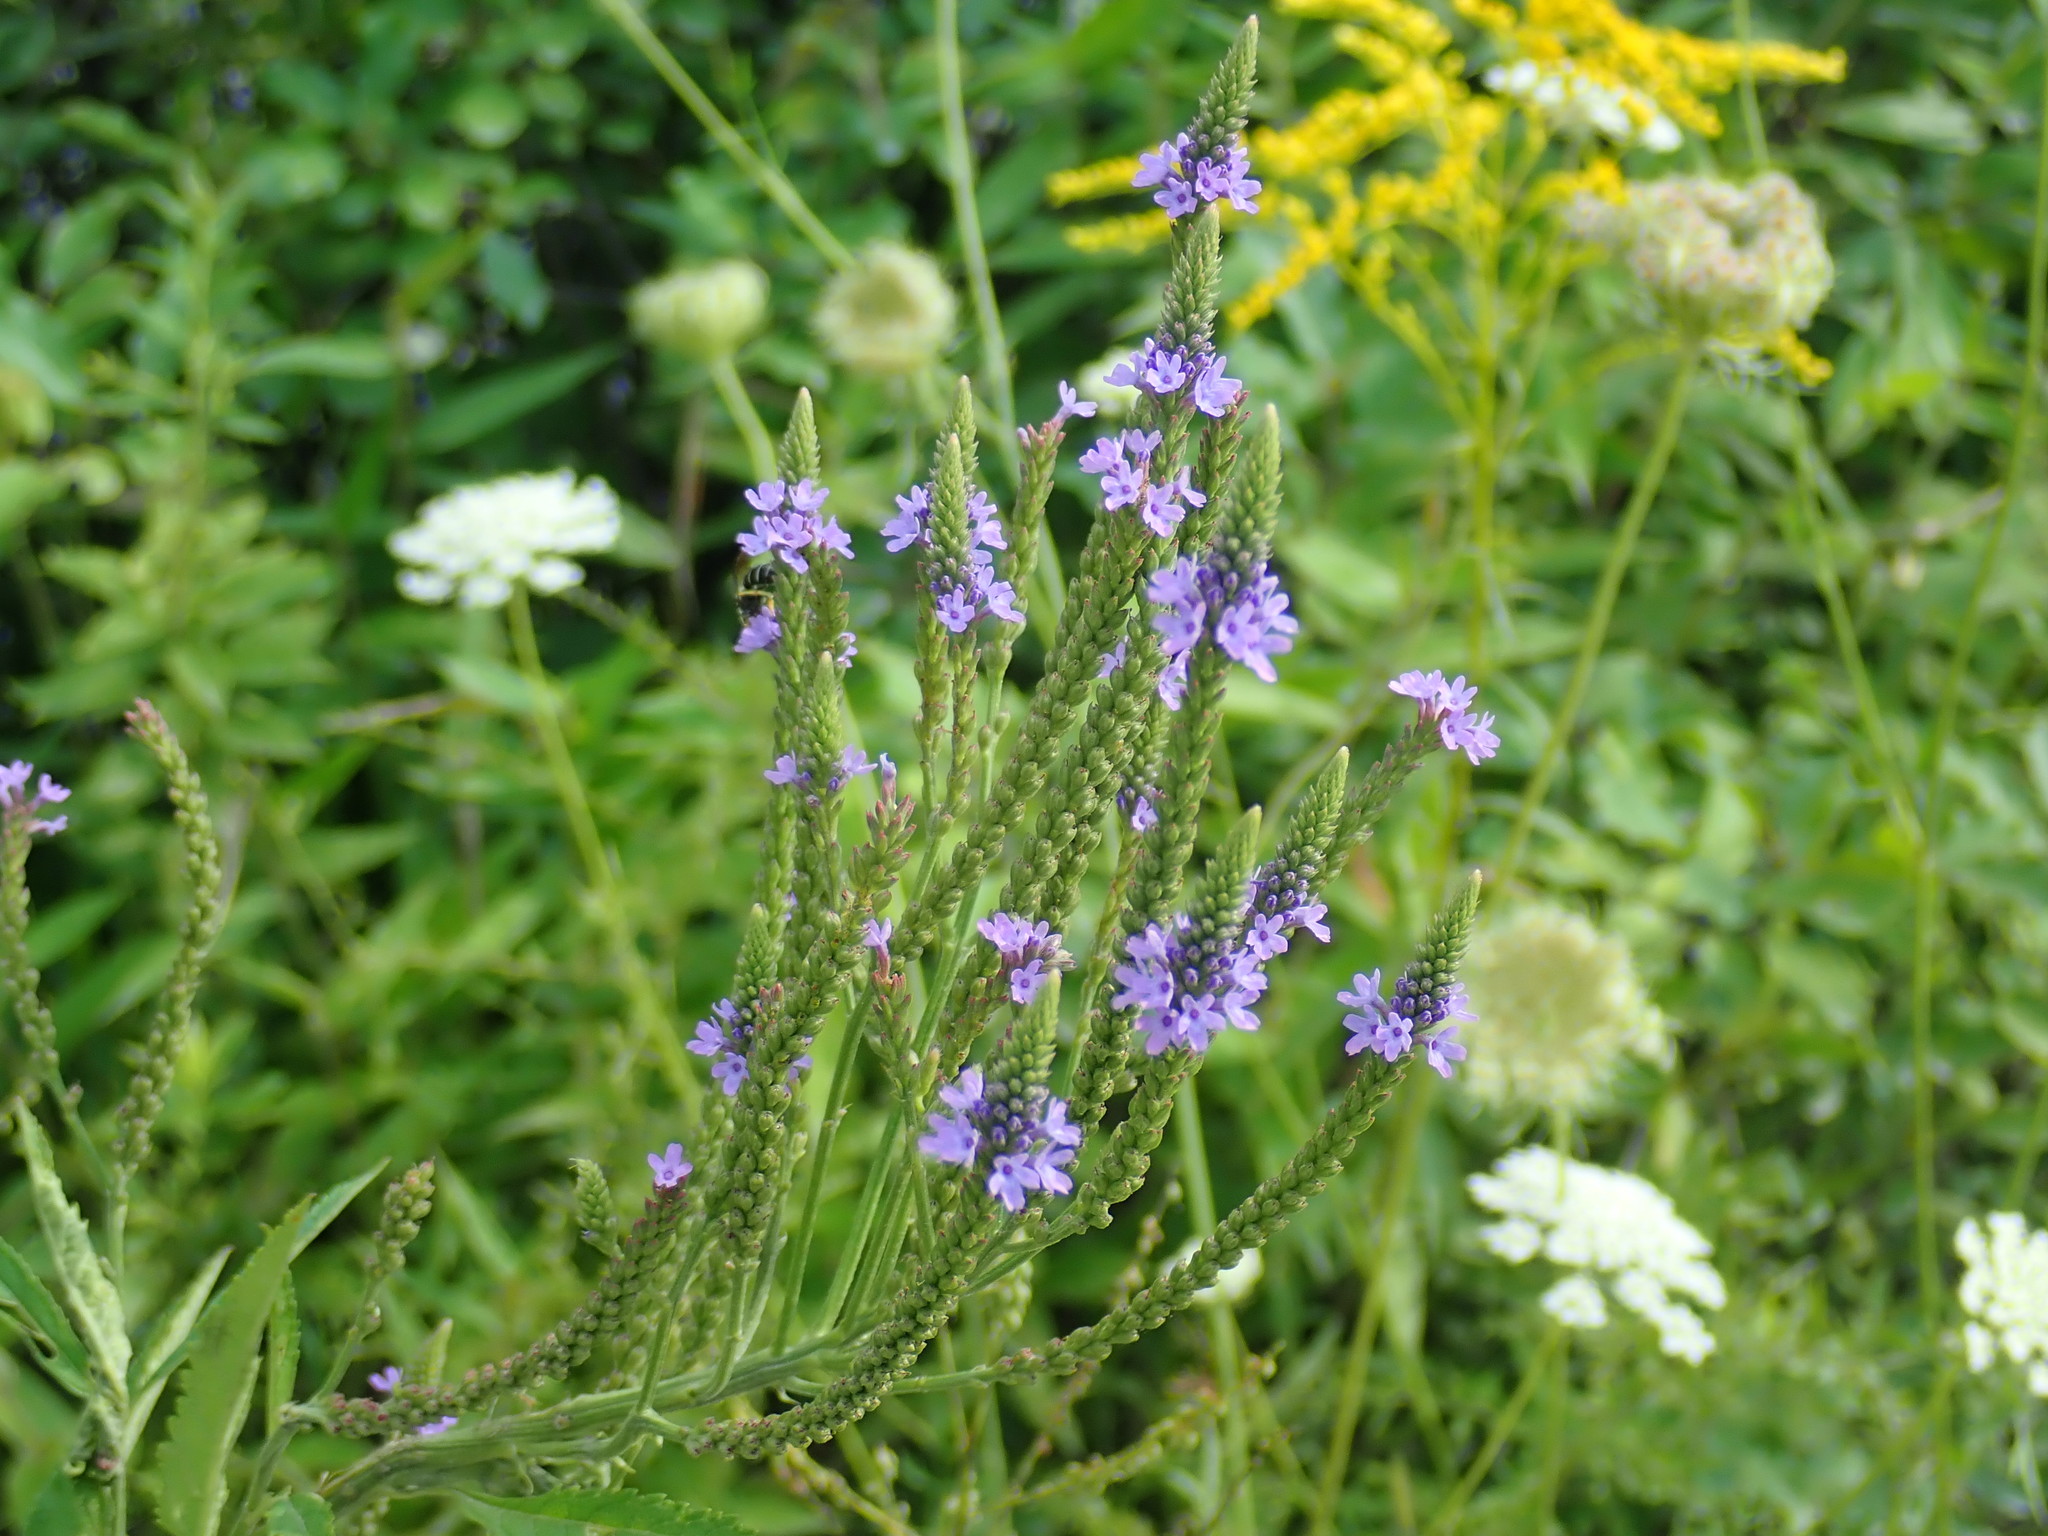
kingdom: Plantae
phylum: Tracheophyta
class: Magnoliopsida
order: Lamiales
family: Verbenaceae
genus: Verbena
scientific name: Verbena hastata
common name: American blue vervain
